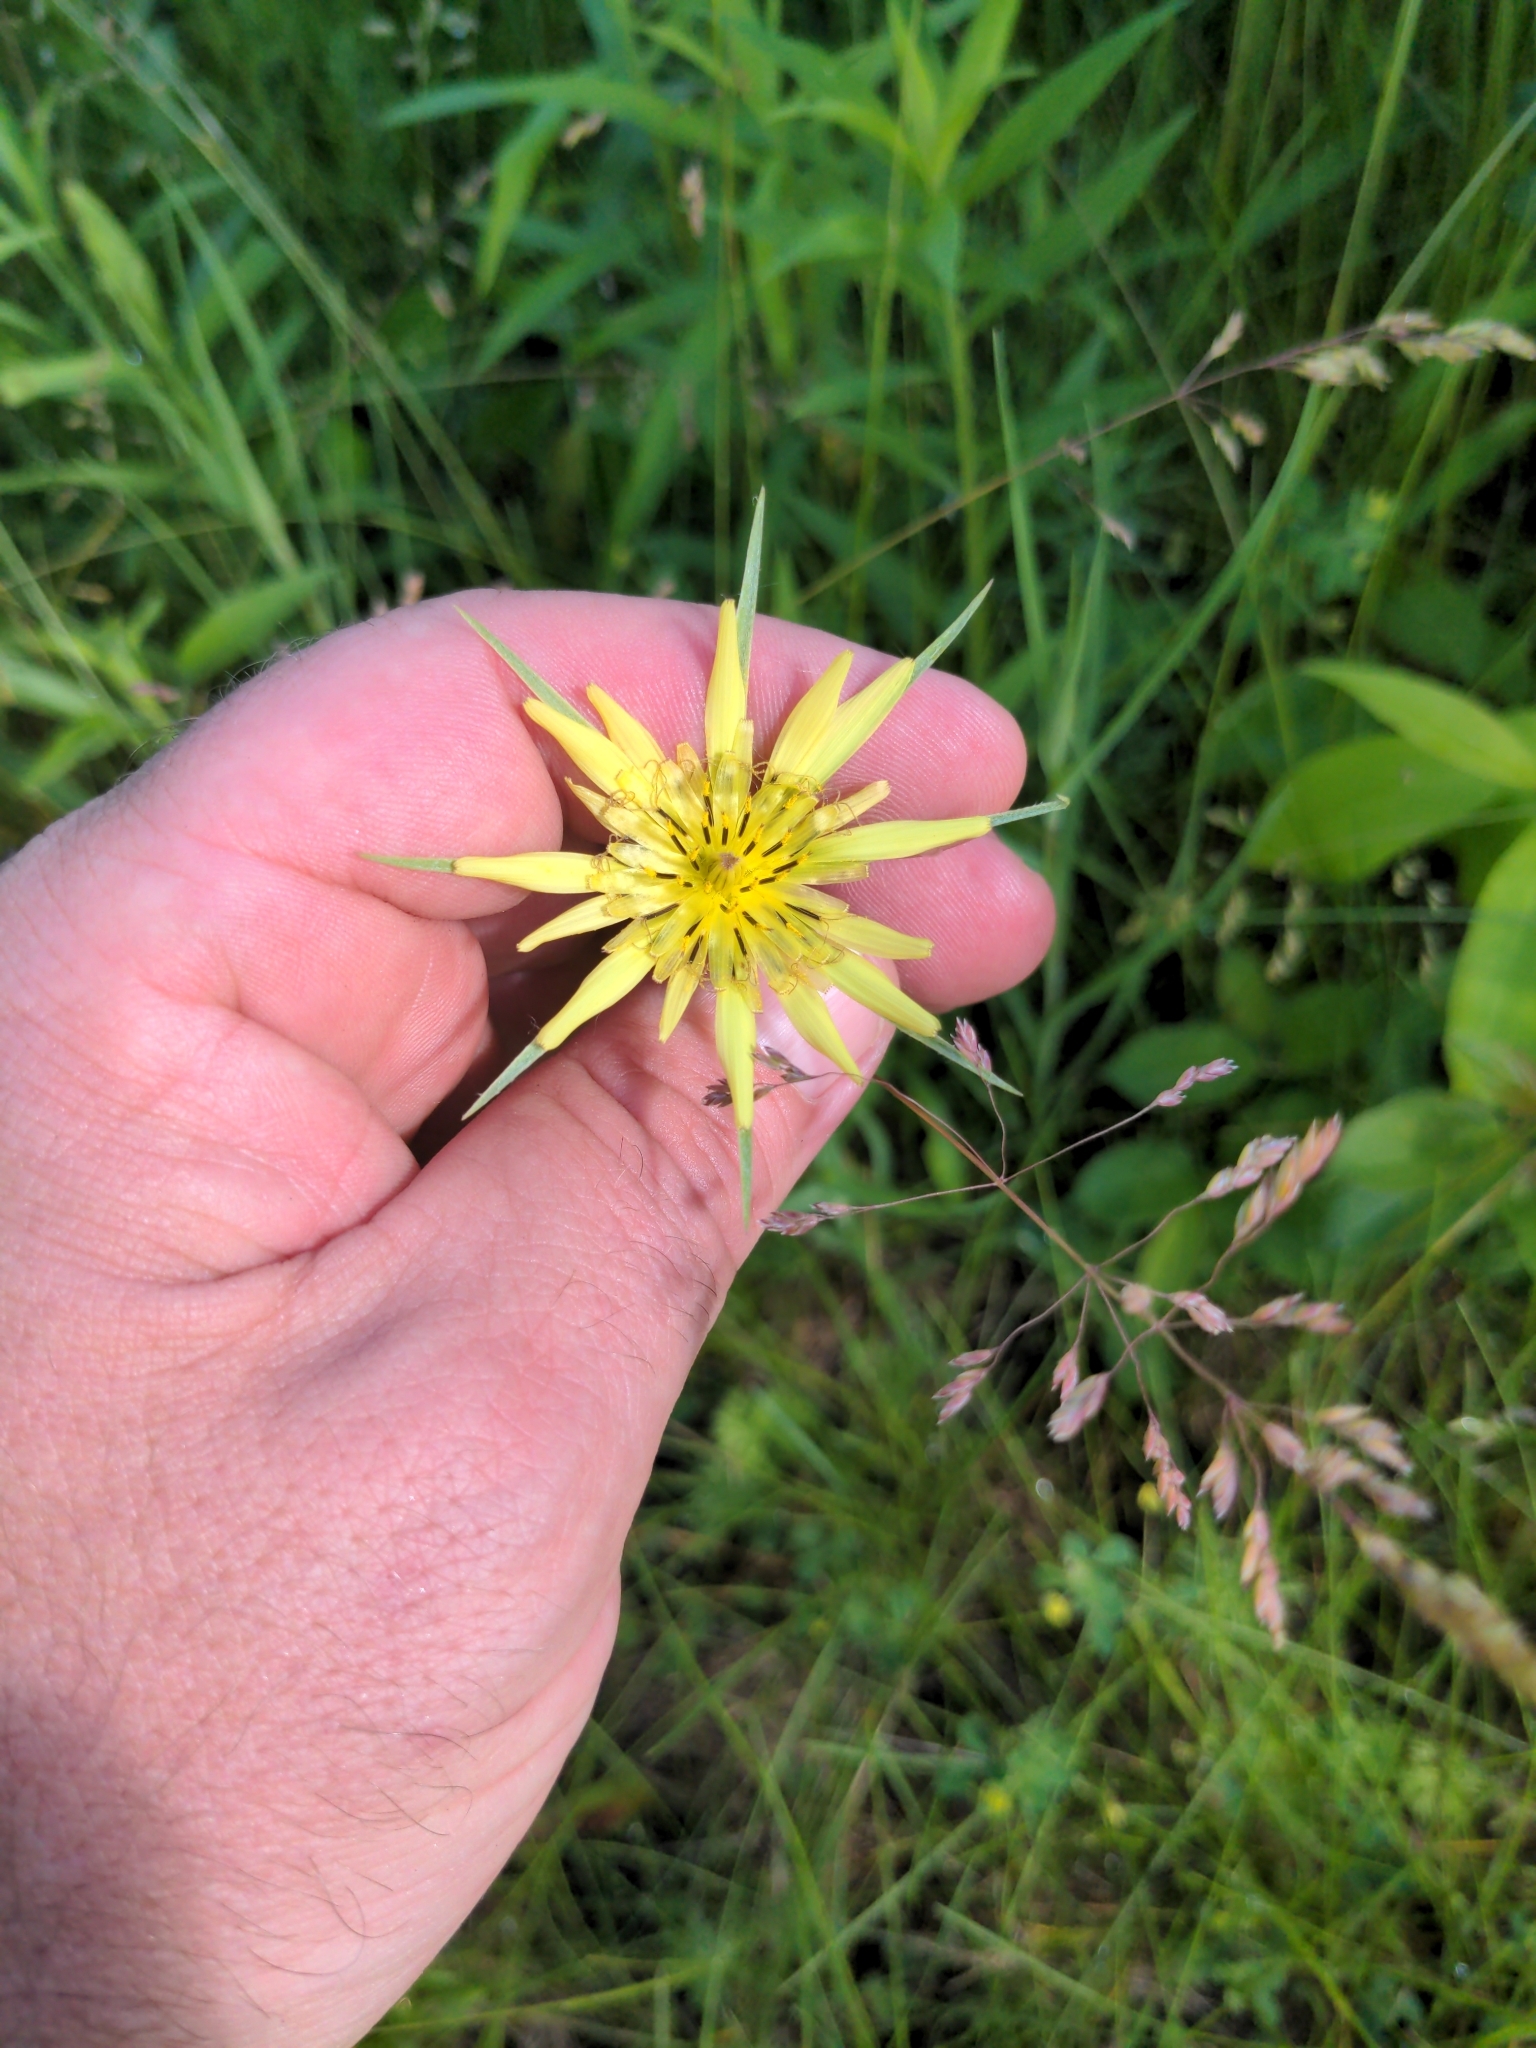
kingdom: Plantae
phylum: Tracheophyta
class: Magnoliopsida
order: Asterales
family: Asteraceae
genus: Tragopogon
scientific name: Tragopogon dubius
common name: Yellow salsify
